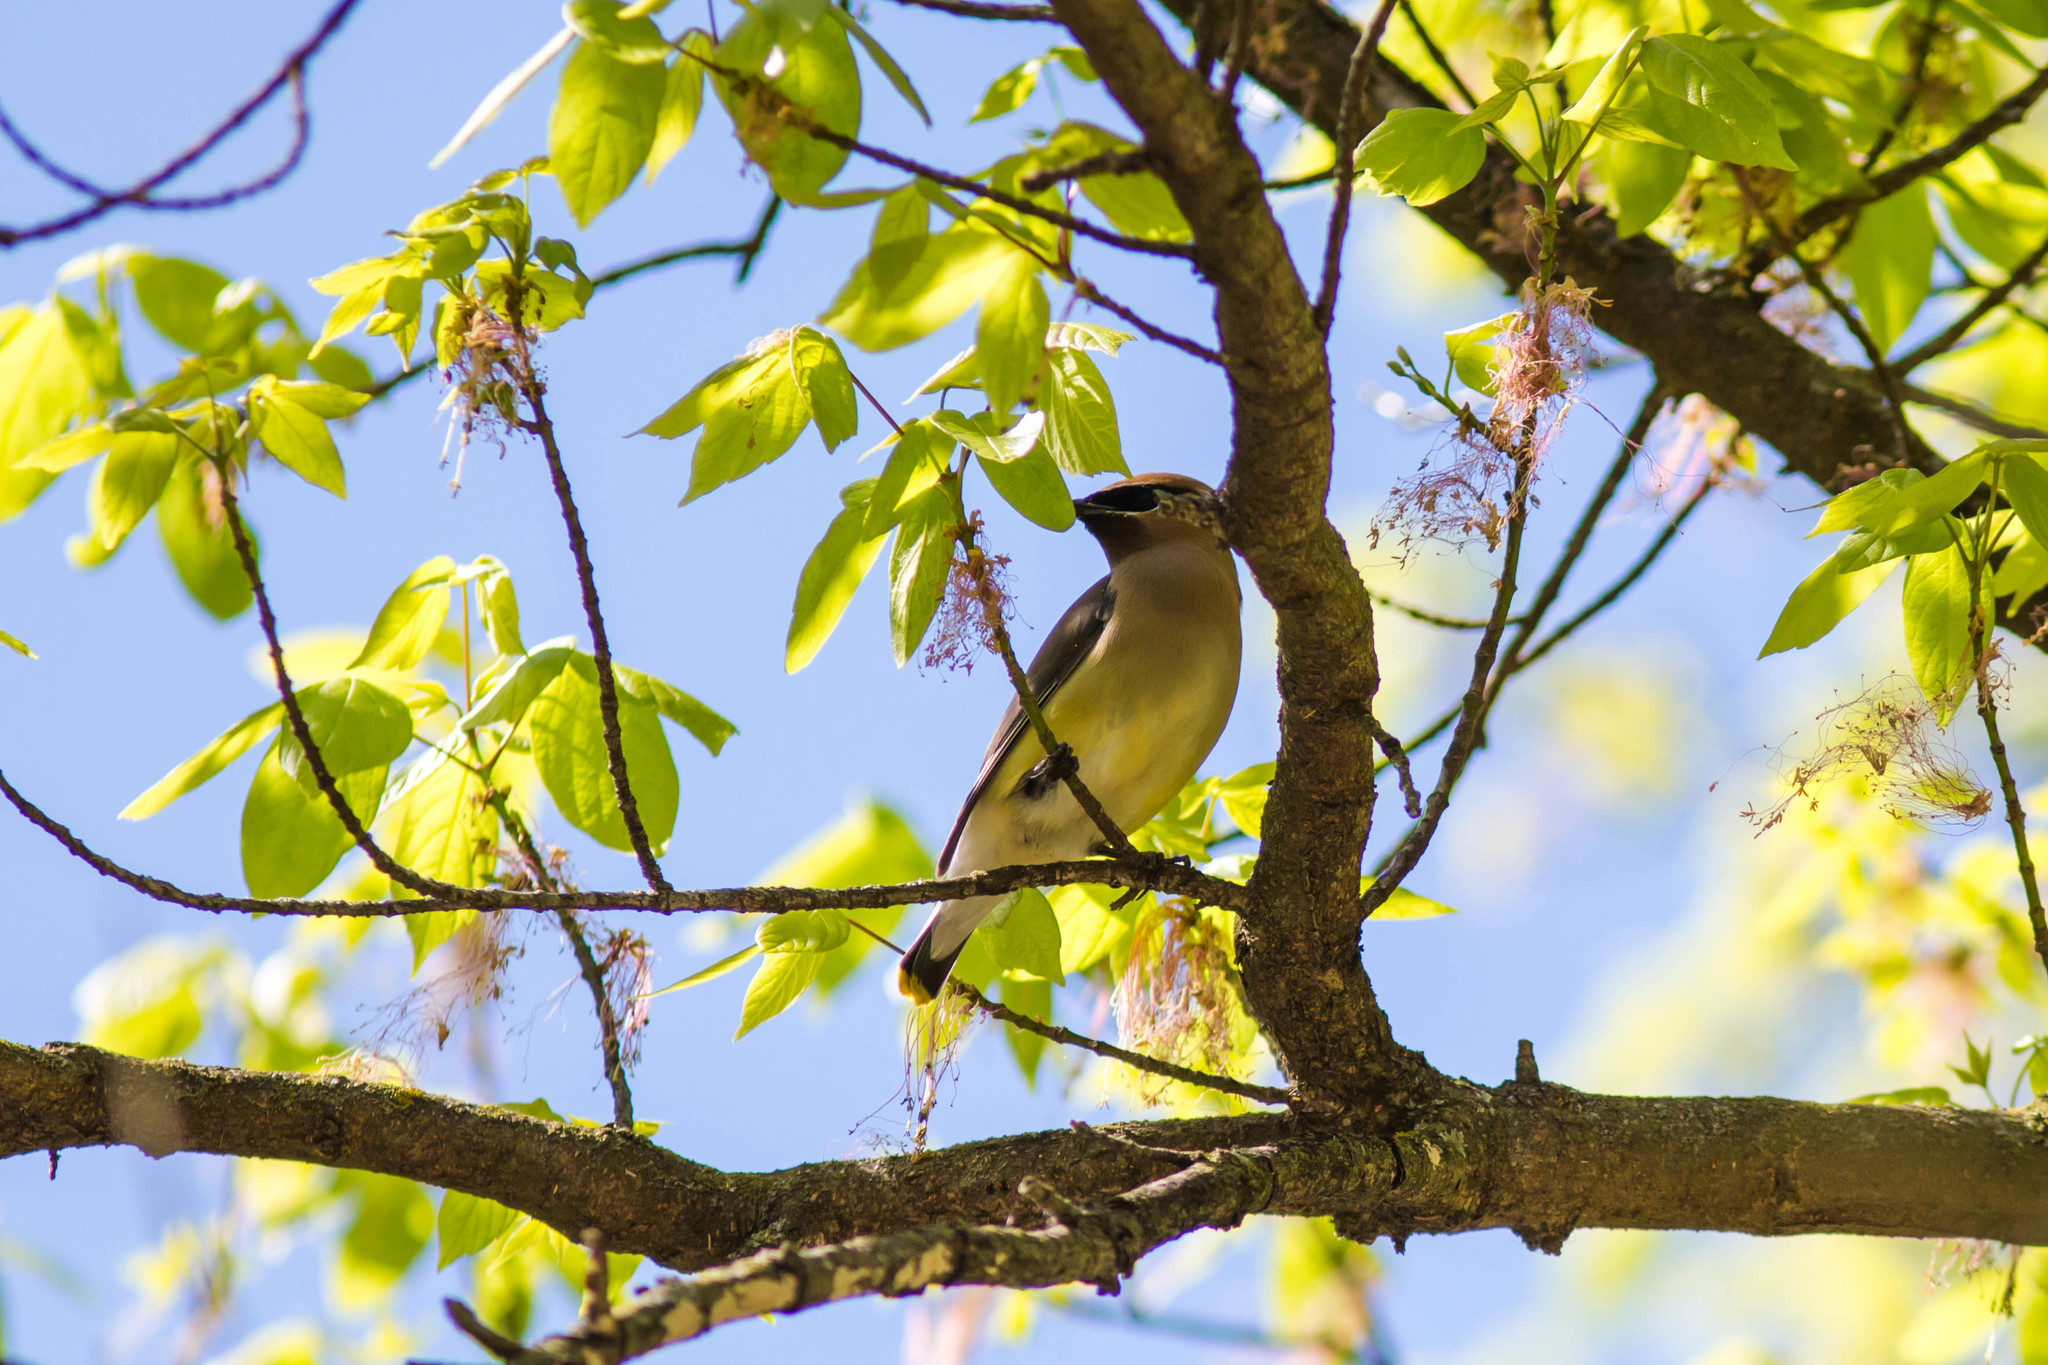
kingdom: Animalia
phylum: Chordata
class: Aves
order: Passeriformes
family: Bombycillidae
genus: Bombycilla
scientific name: Bombycilla cedrorum
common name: Cedar waxwing
